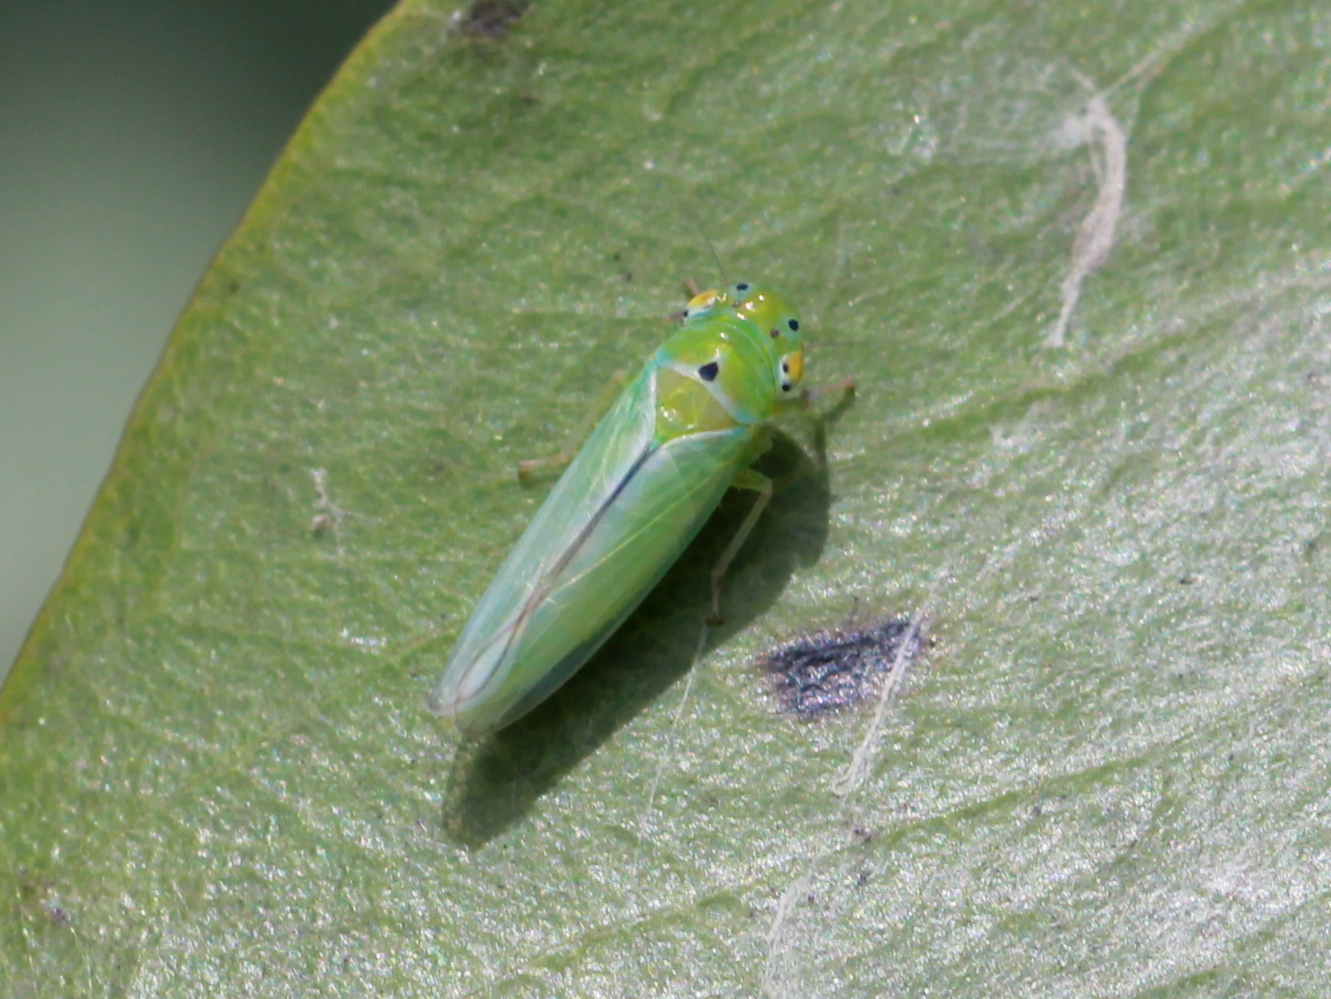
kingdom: Animalia
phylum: Arthropoda
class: Insecta
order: Hemiptera
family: Cicadellidae
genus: Kolla
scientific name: Kolla ceylonica
